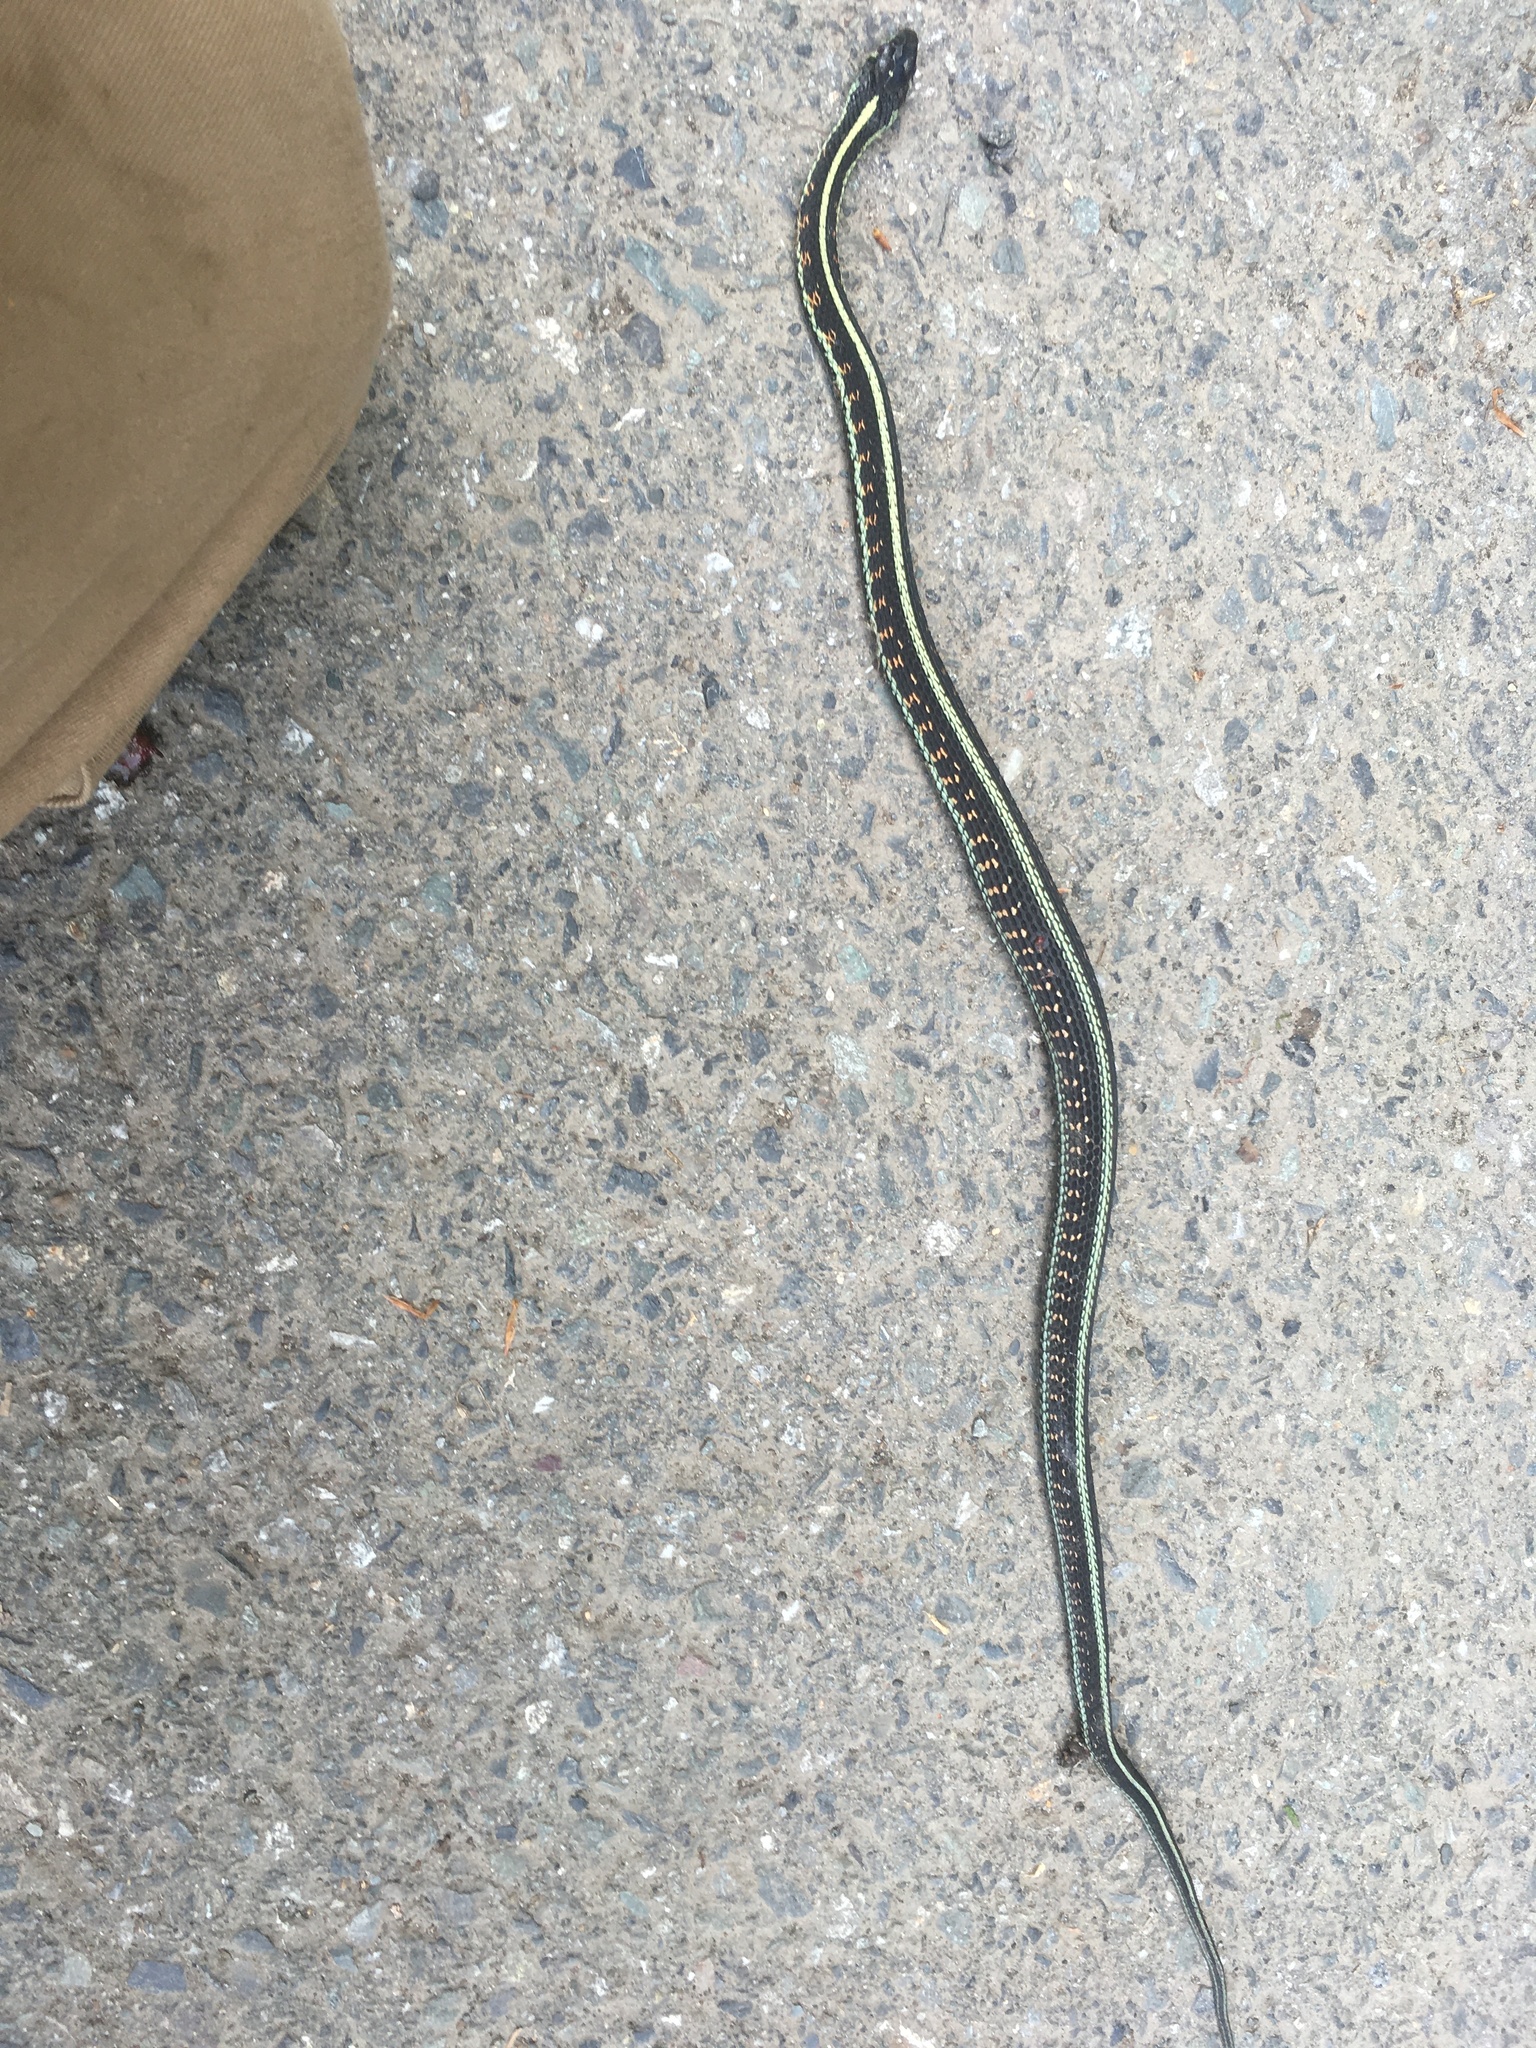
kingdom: Animalia
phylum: Chordata
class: Squamata
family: Colubridae
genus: Thamnophis
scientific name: Thamnophis sirtalis
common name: Common garter snake
